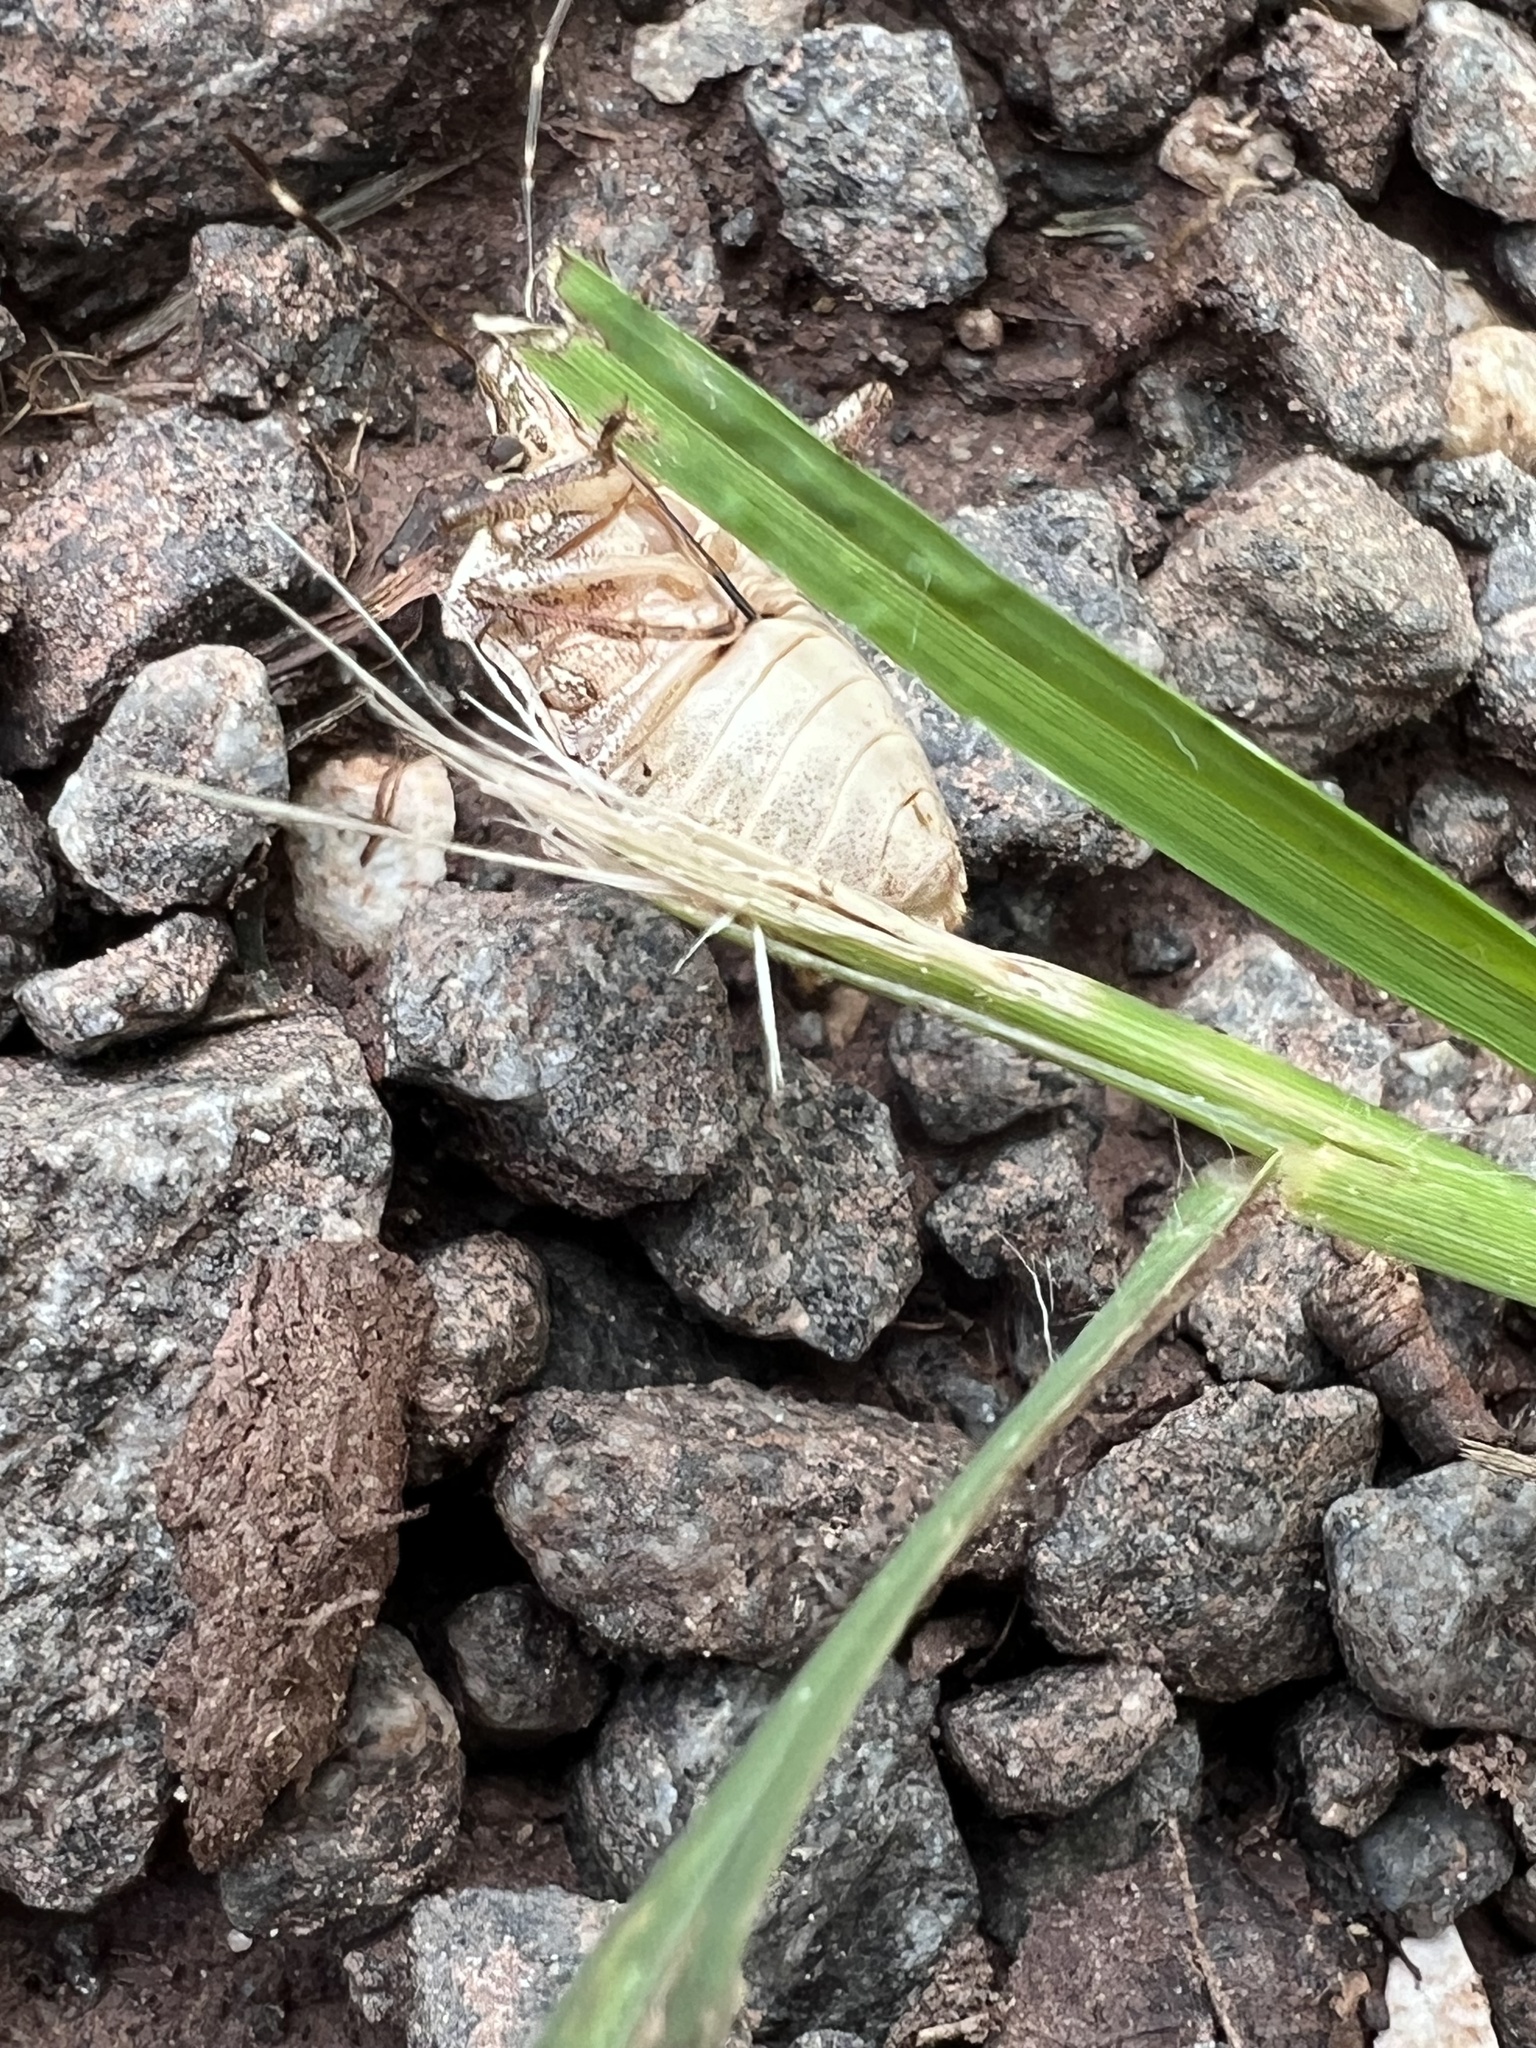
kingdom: Animalia
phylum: Arthropoda
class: Insecta
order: Hemiptera
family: Pentatomidae
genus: Halyomorpha
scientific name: Halyomorpha halys
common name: Brown marmorated stink bug
